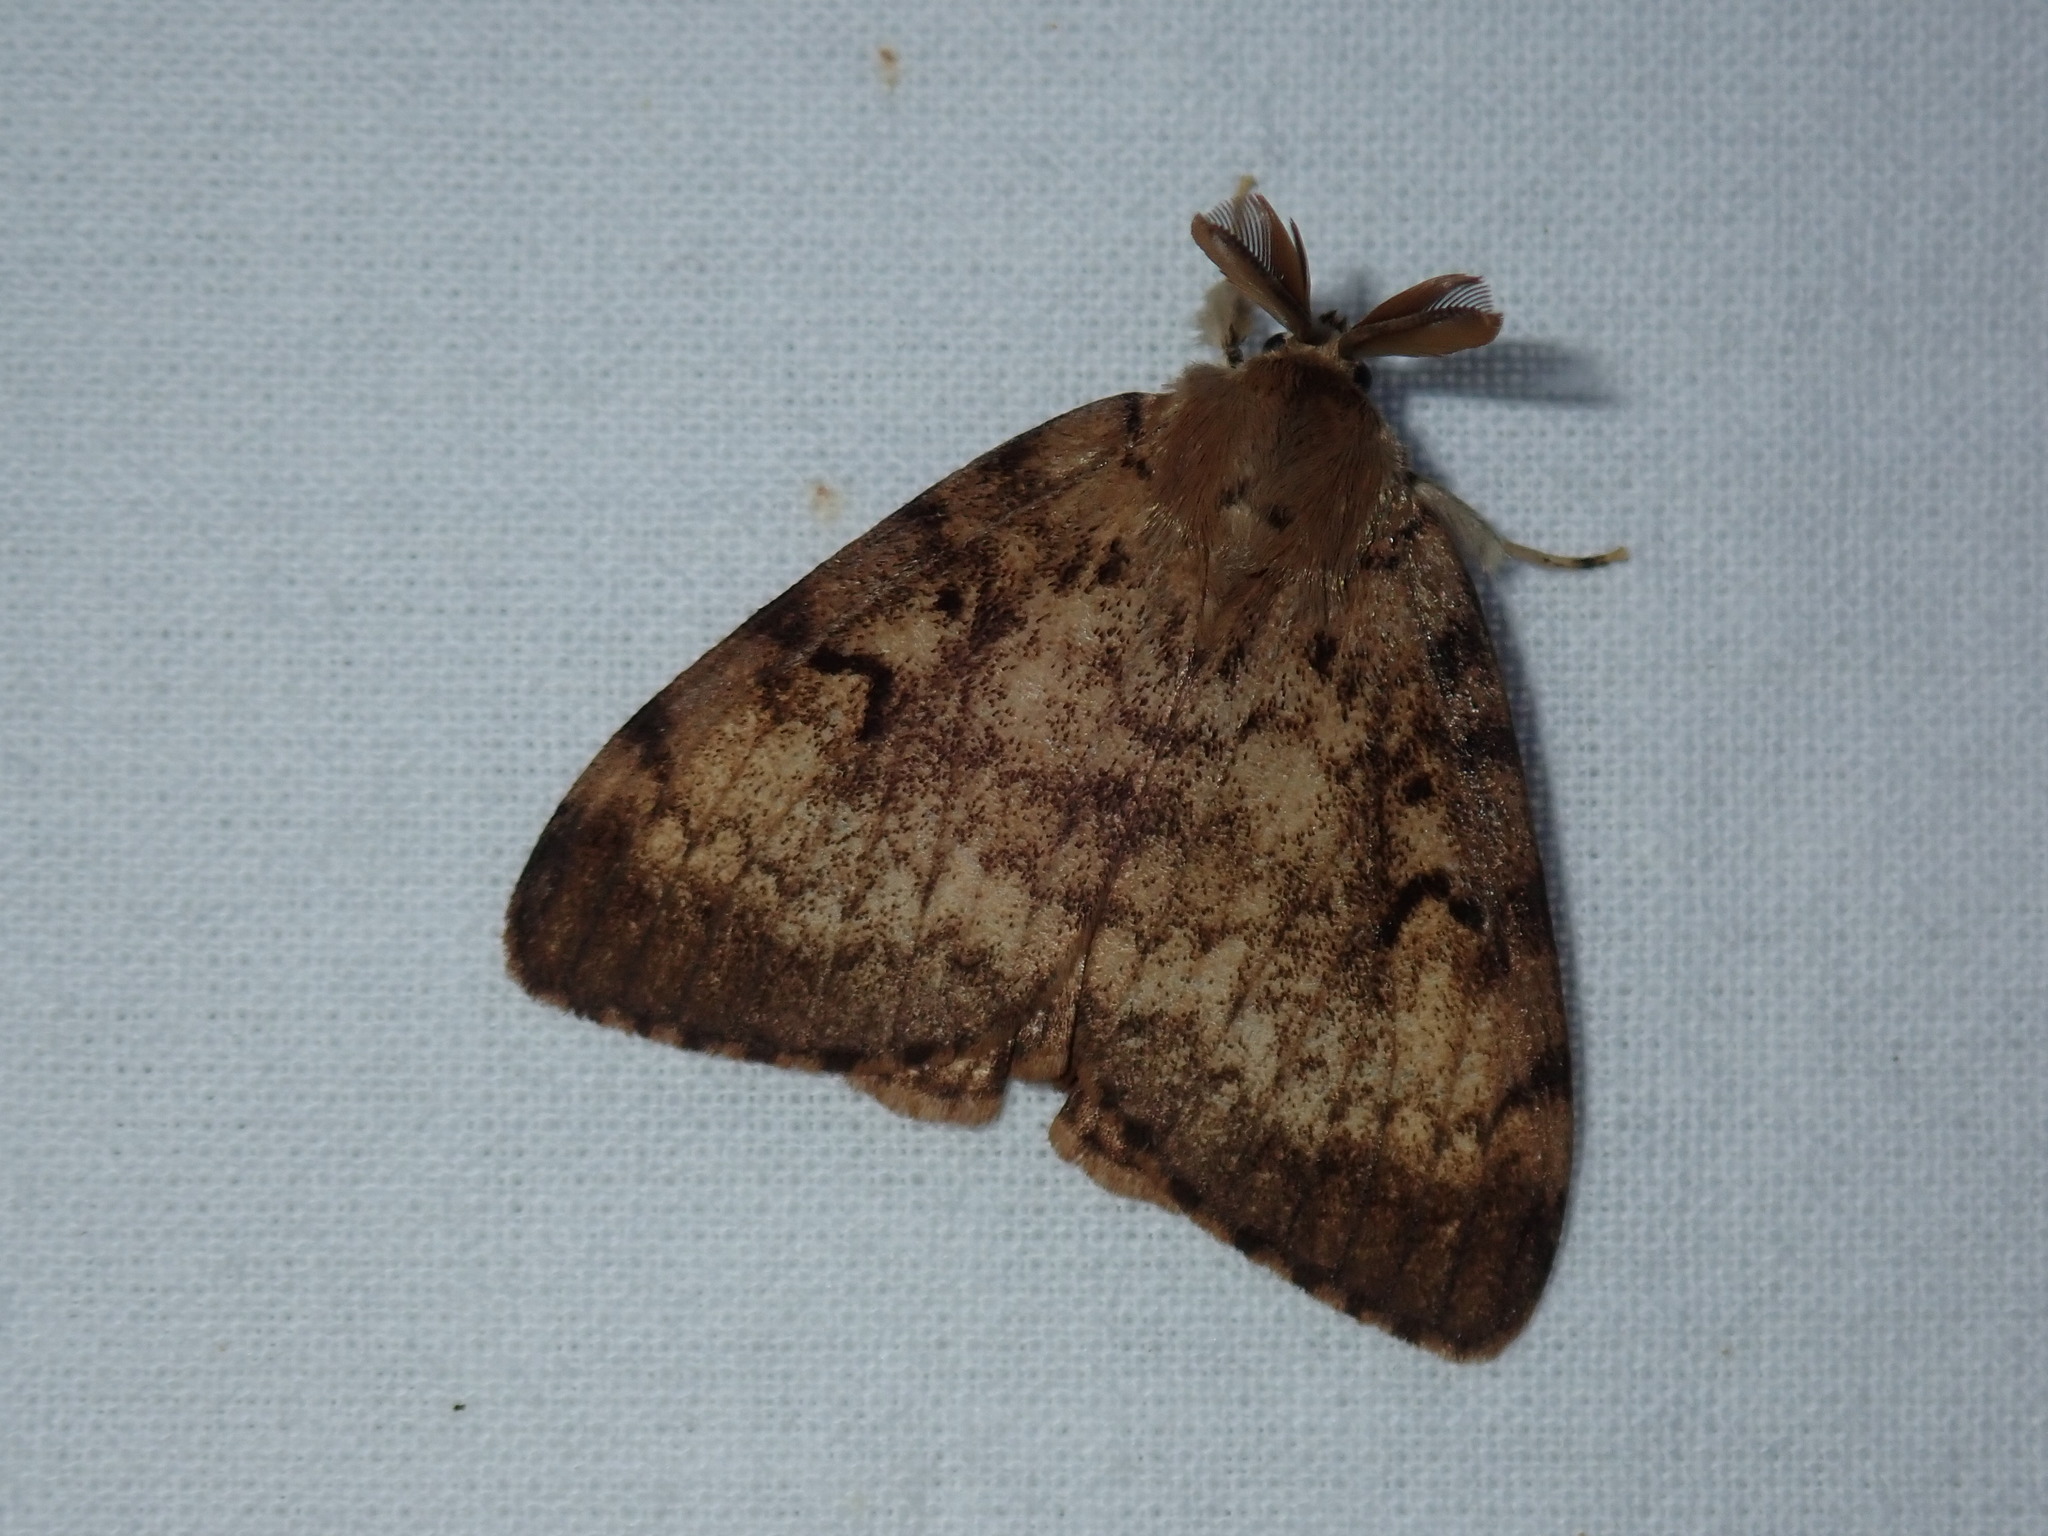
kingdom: Animalia
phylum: Arthropoda
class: Insecta
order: Lepidoptera
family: Erebidae
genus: Lymantria
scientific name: Lymantria dispar
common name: Gypsy moth
